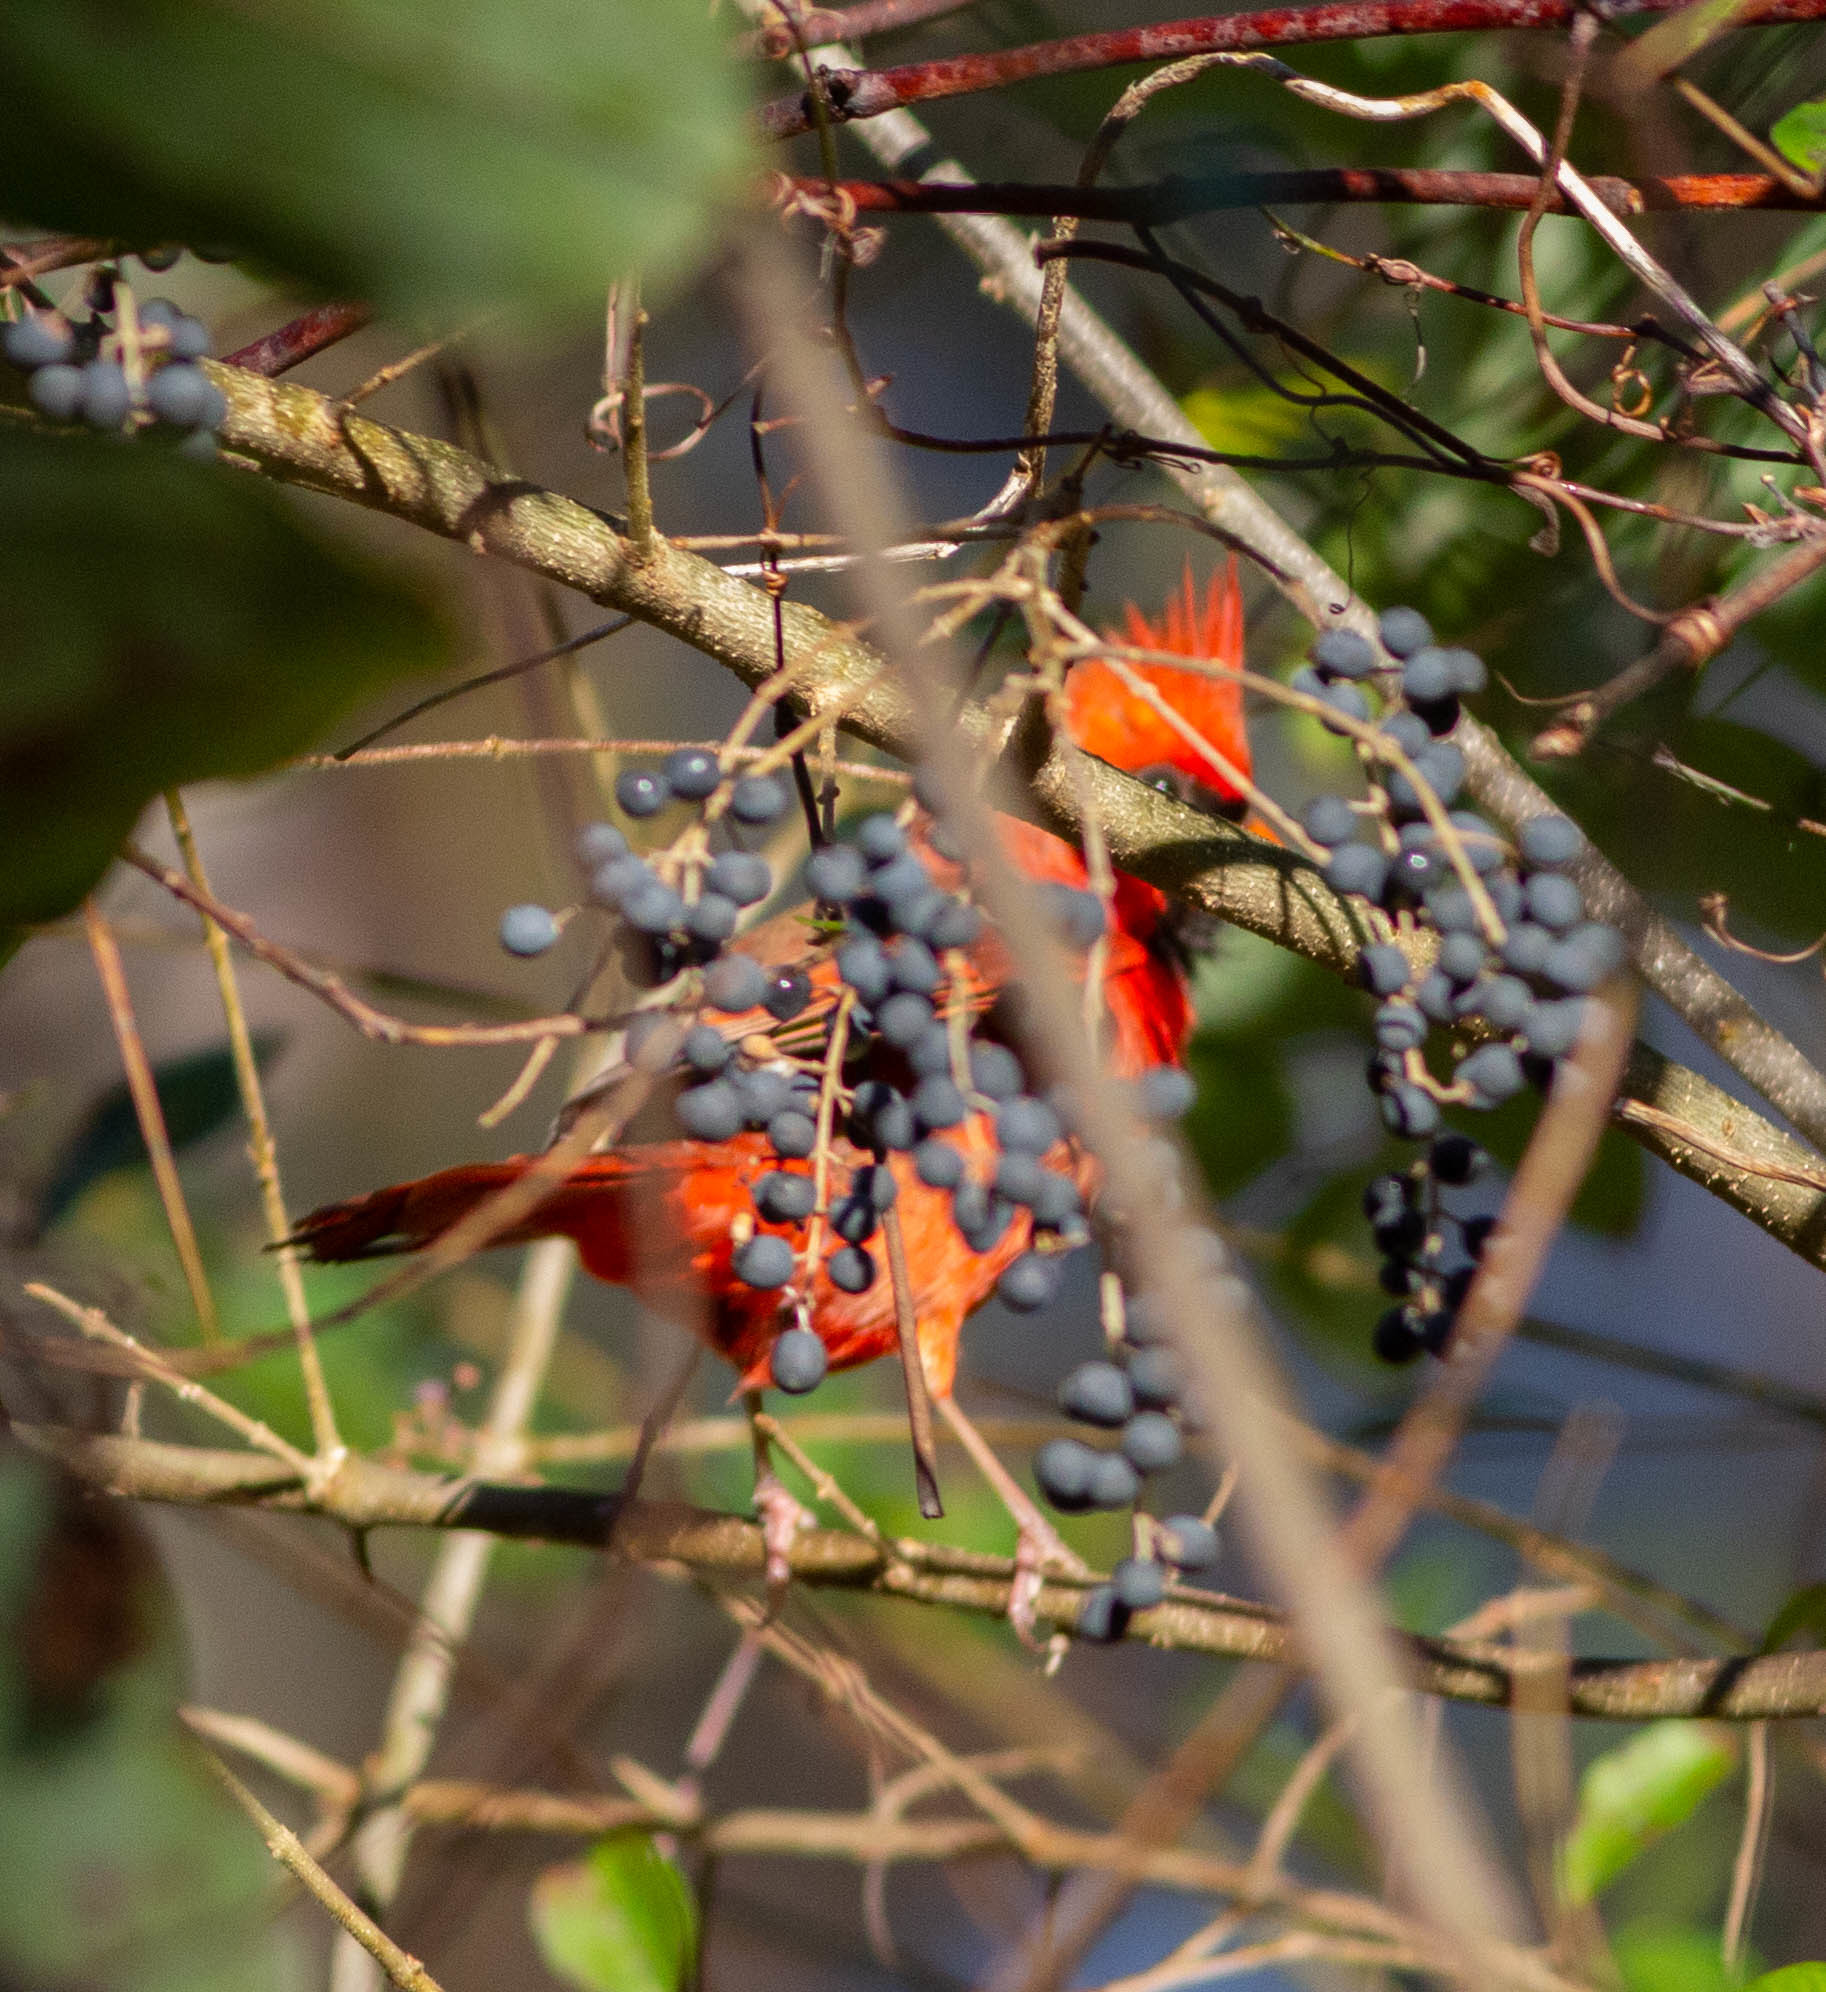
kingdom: Animalia
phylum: Chordata
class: Aves
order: Passeriformes
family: Cardinalidae
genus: Cardinalis
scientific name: Cardinalis cardinalis
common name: Northern cardinal
